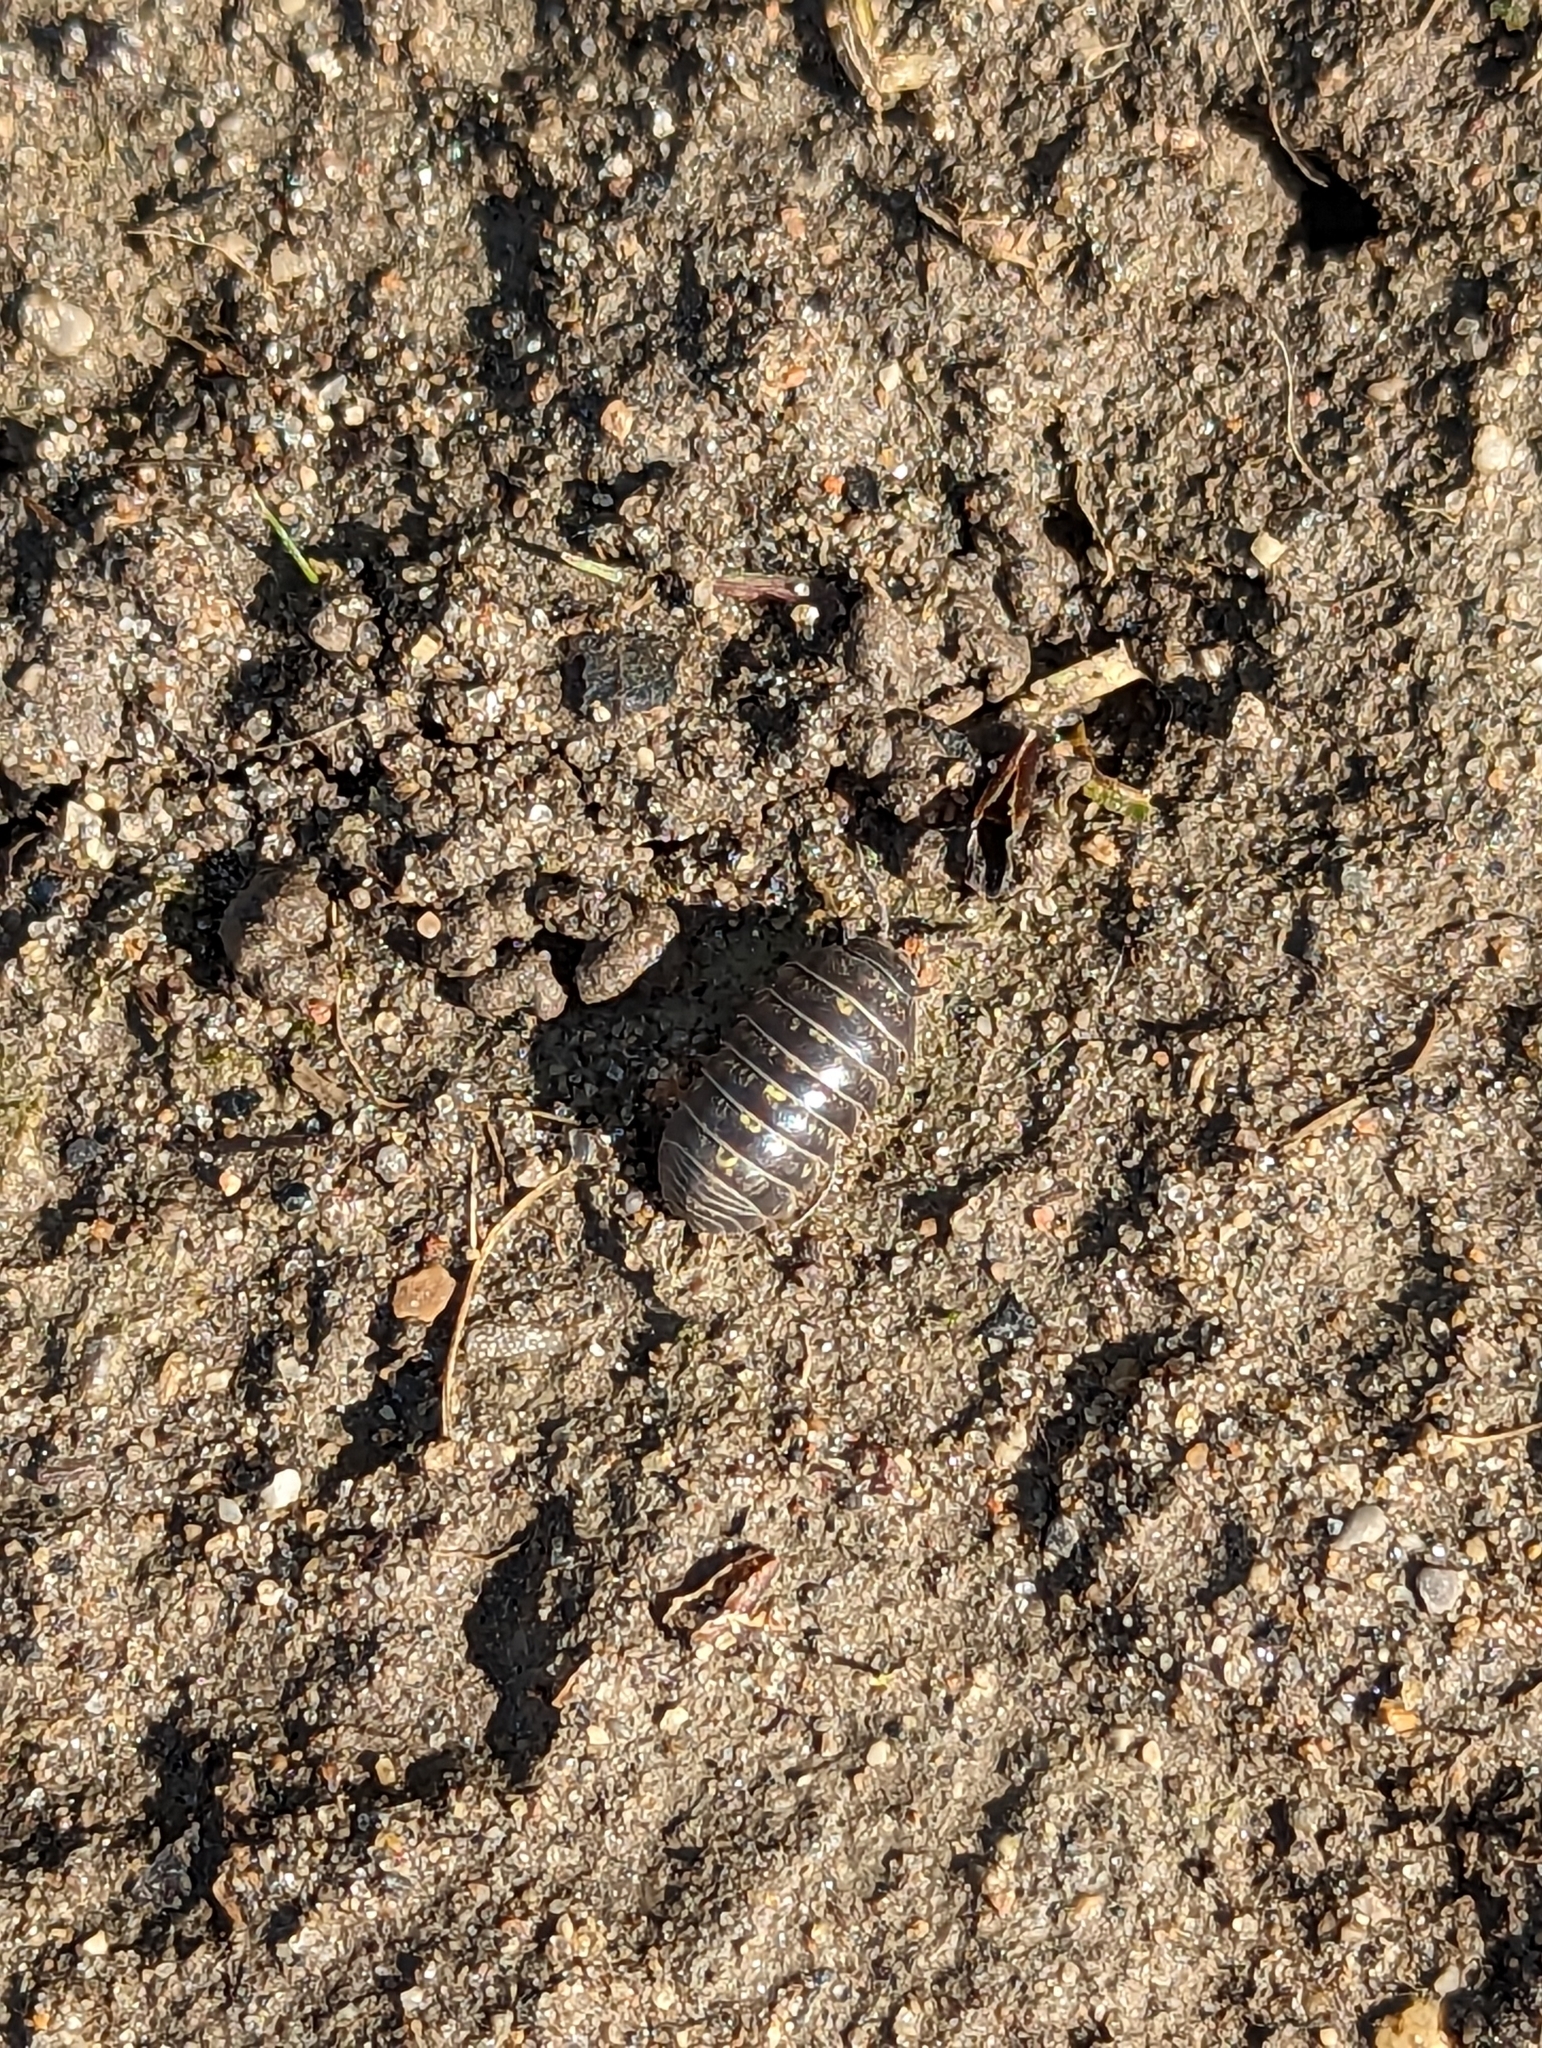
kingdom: Animalia
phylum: Arthropoda
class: Malacostraca
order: Isopoda
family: Armadillidiidae
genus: Armadillidium
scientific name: Armadillidium vulgare
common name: Common pill woodlouse
